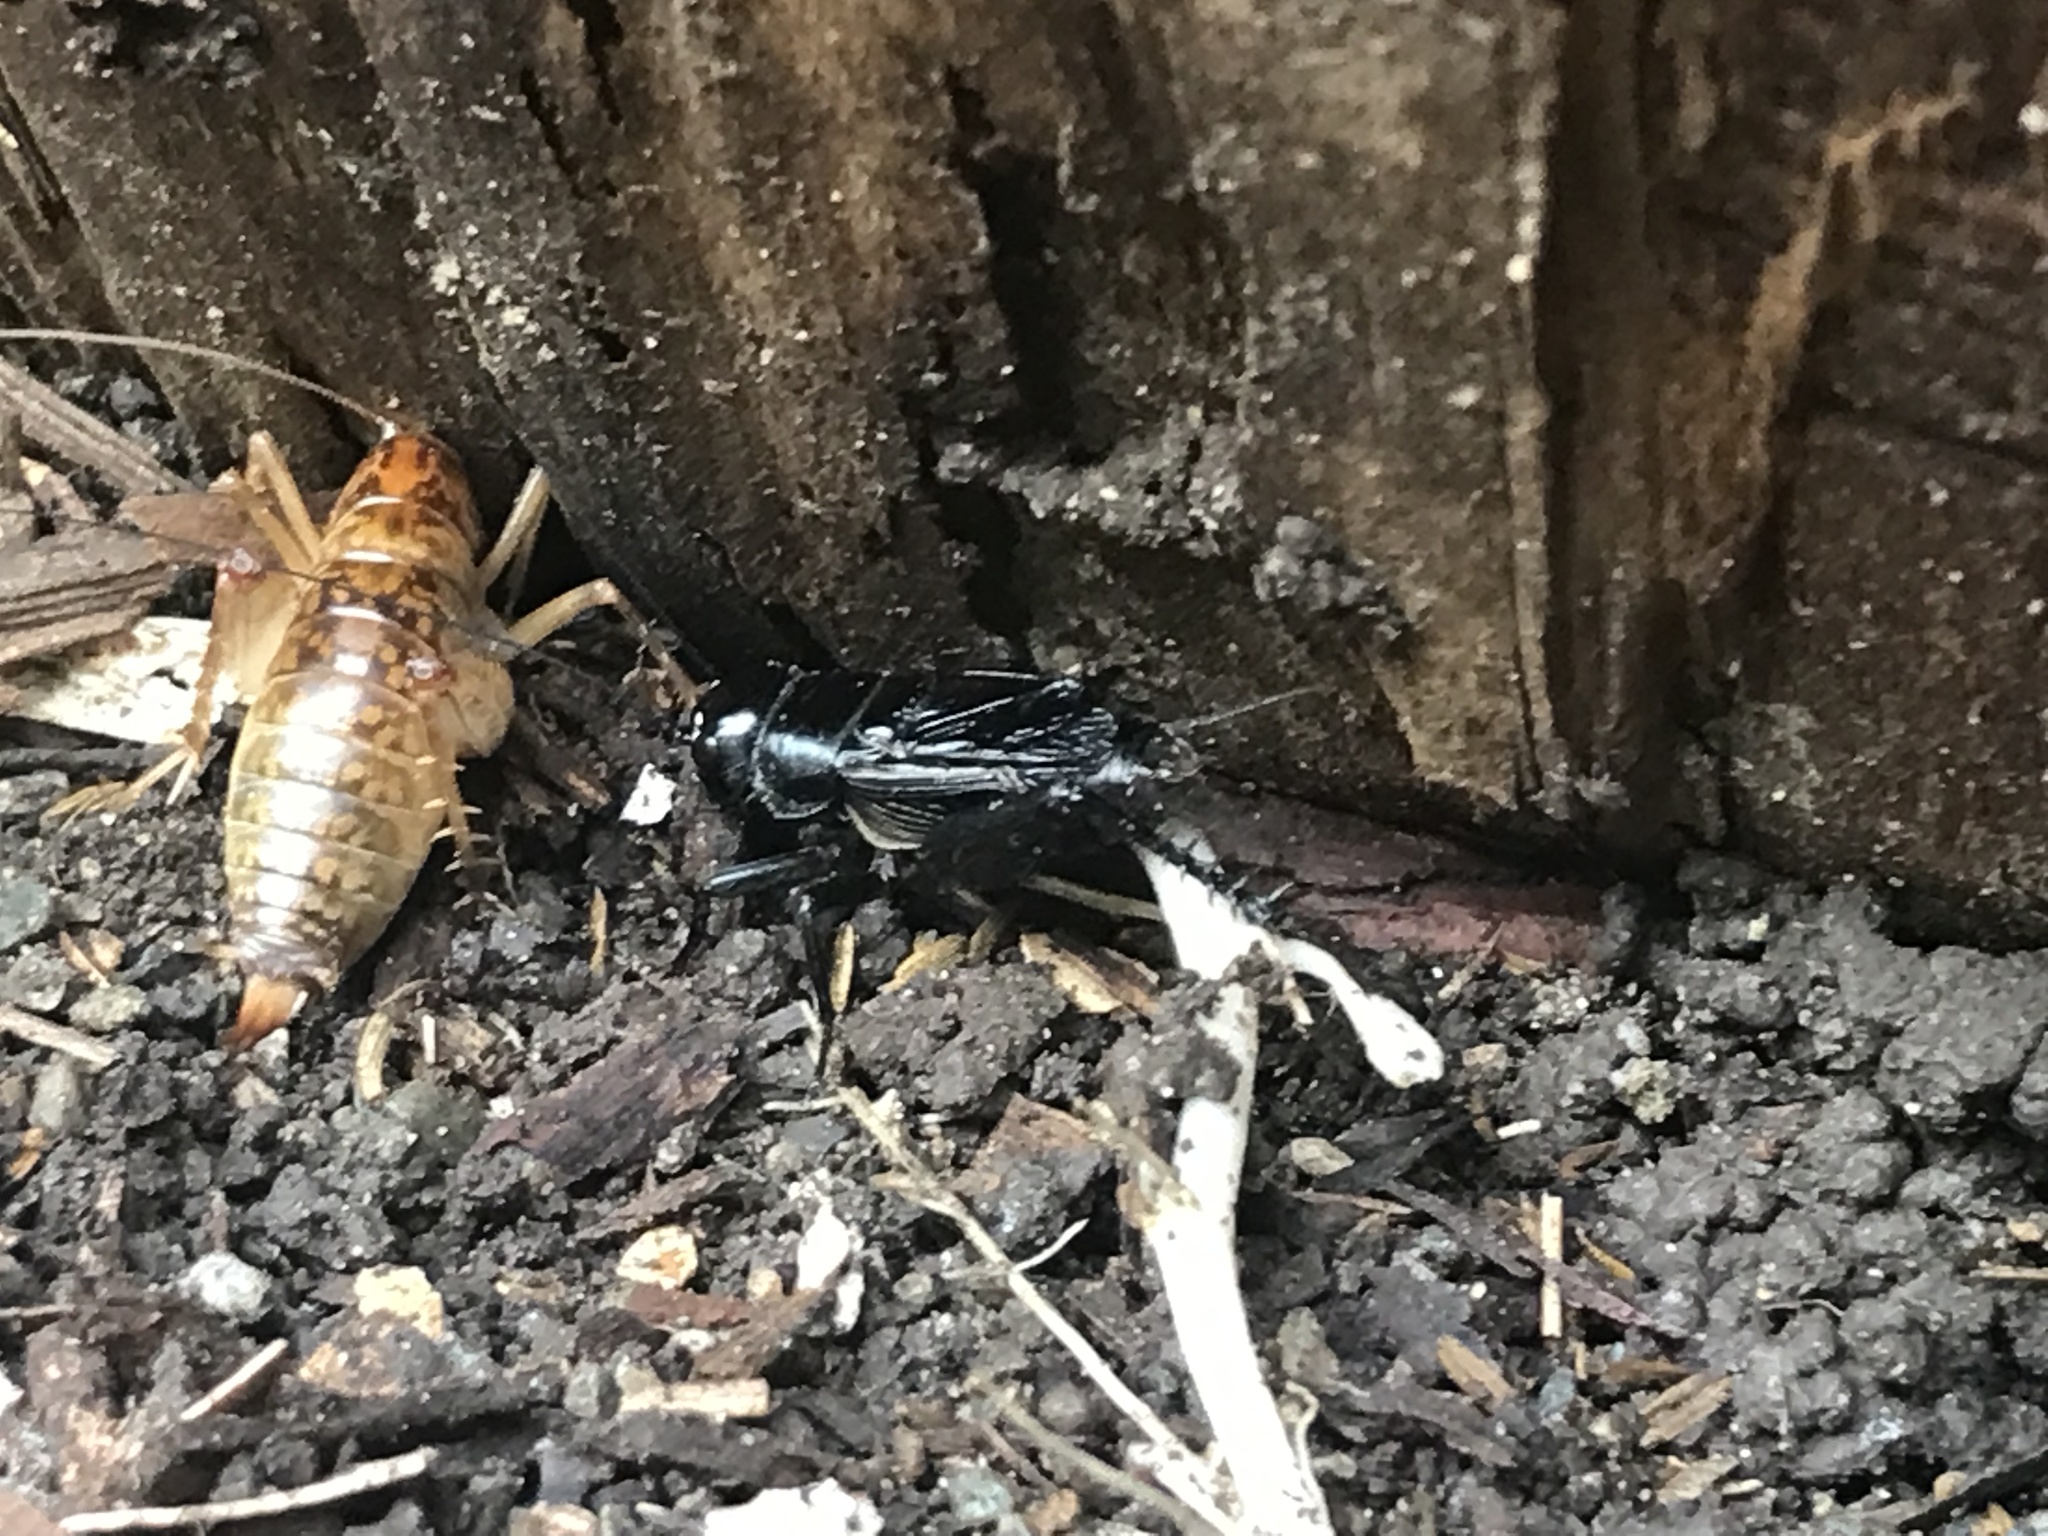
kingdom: Animalia
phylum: Arthropoda
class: Insecta
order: Orthoptera
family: Gryllidae
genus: Gryllus
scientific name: Gryllus pennsylvanicus
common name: Fall field cricket
